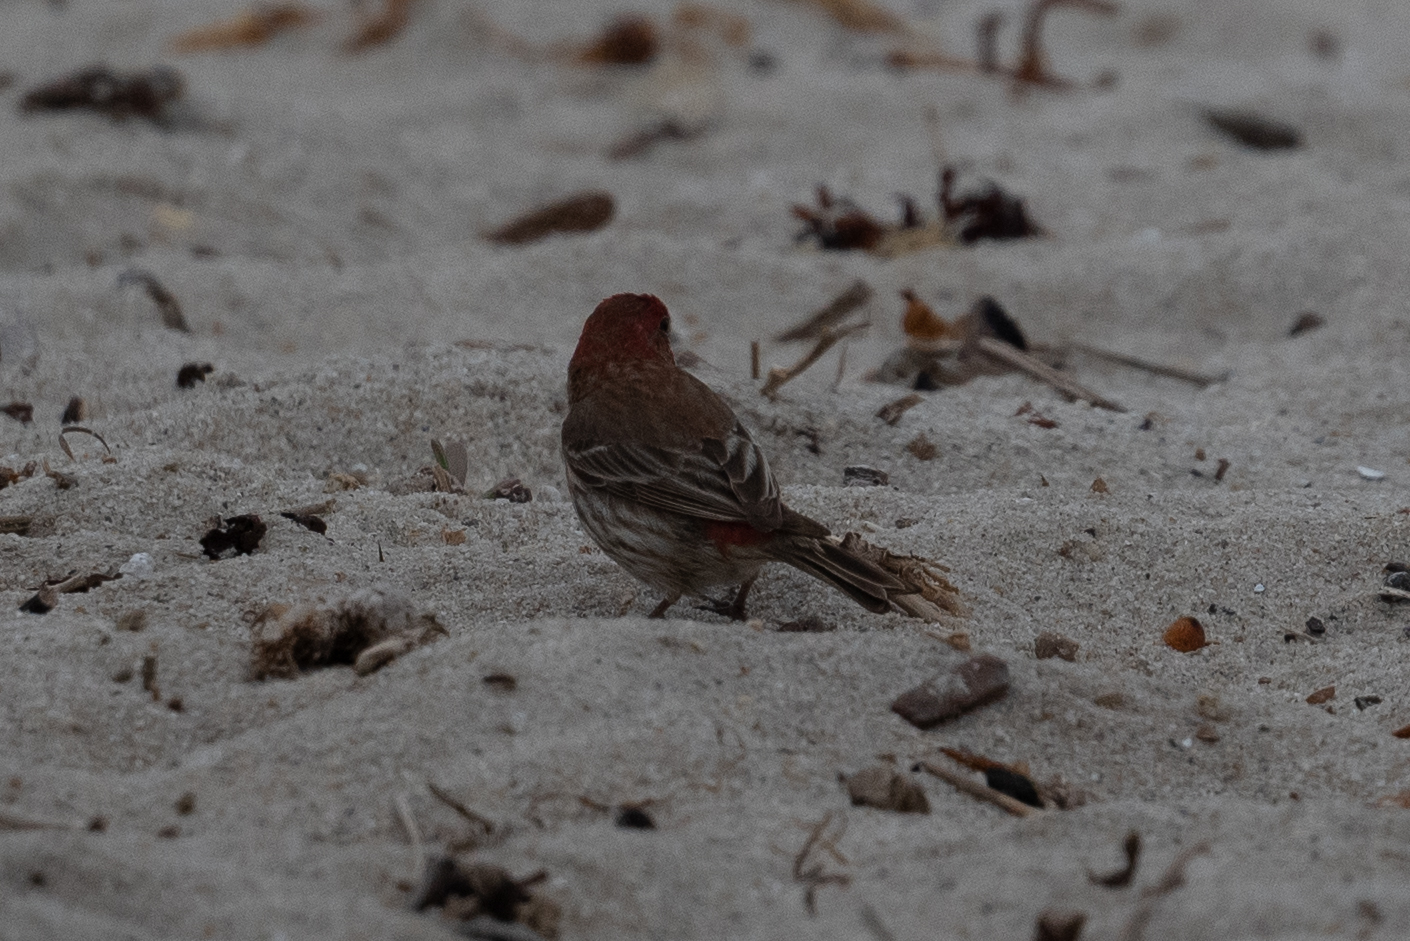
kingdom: Animalia
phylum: Chordata
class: Aves
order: Passeriformes
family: Fringillidae
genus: Haemorhous
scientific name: Haemorhous mexicanus
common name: House finch
